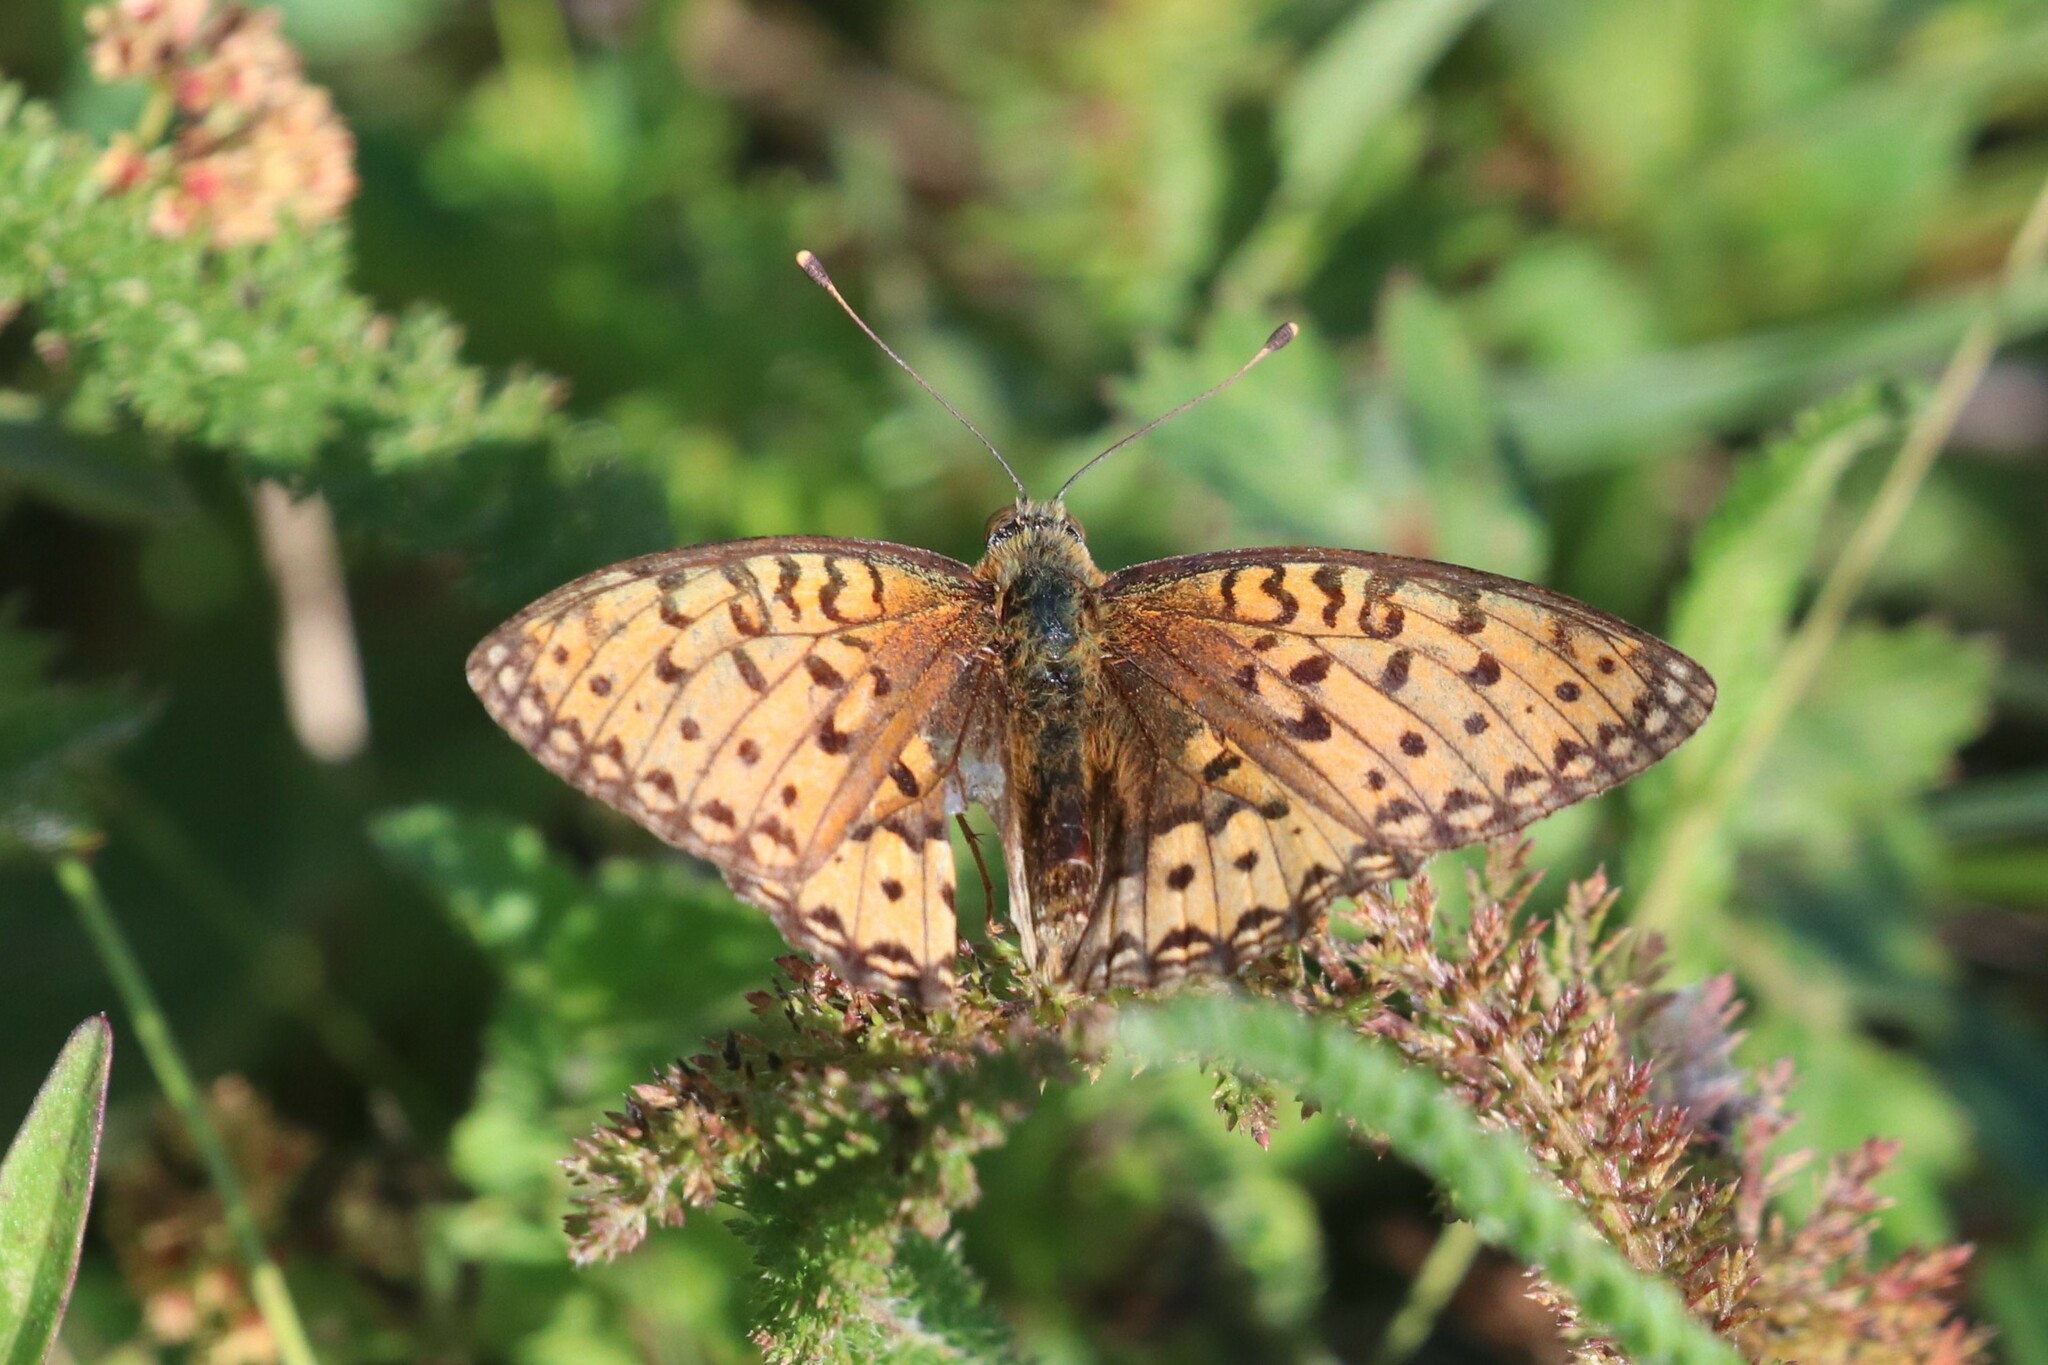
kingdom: Animalia
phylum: Arthropoda
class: Insecta
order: Lepidoptera
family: Nymphalidae
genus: Speyeria
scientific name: Speyeria aglaja
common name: Dark green fritillary
